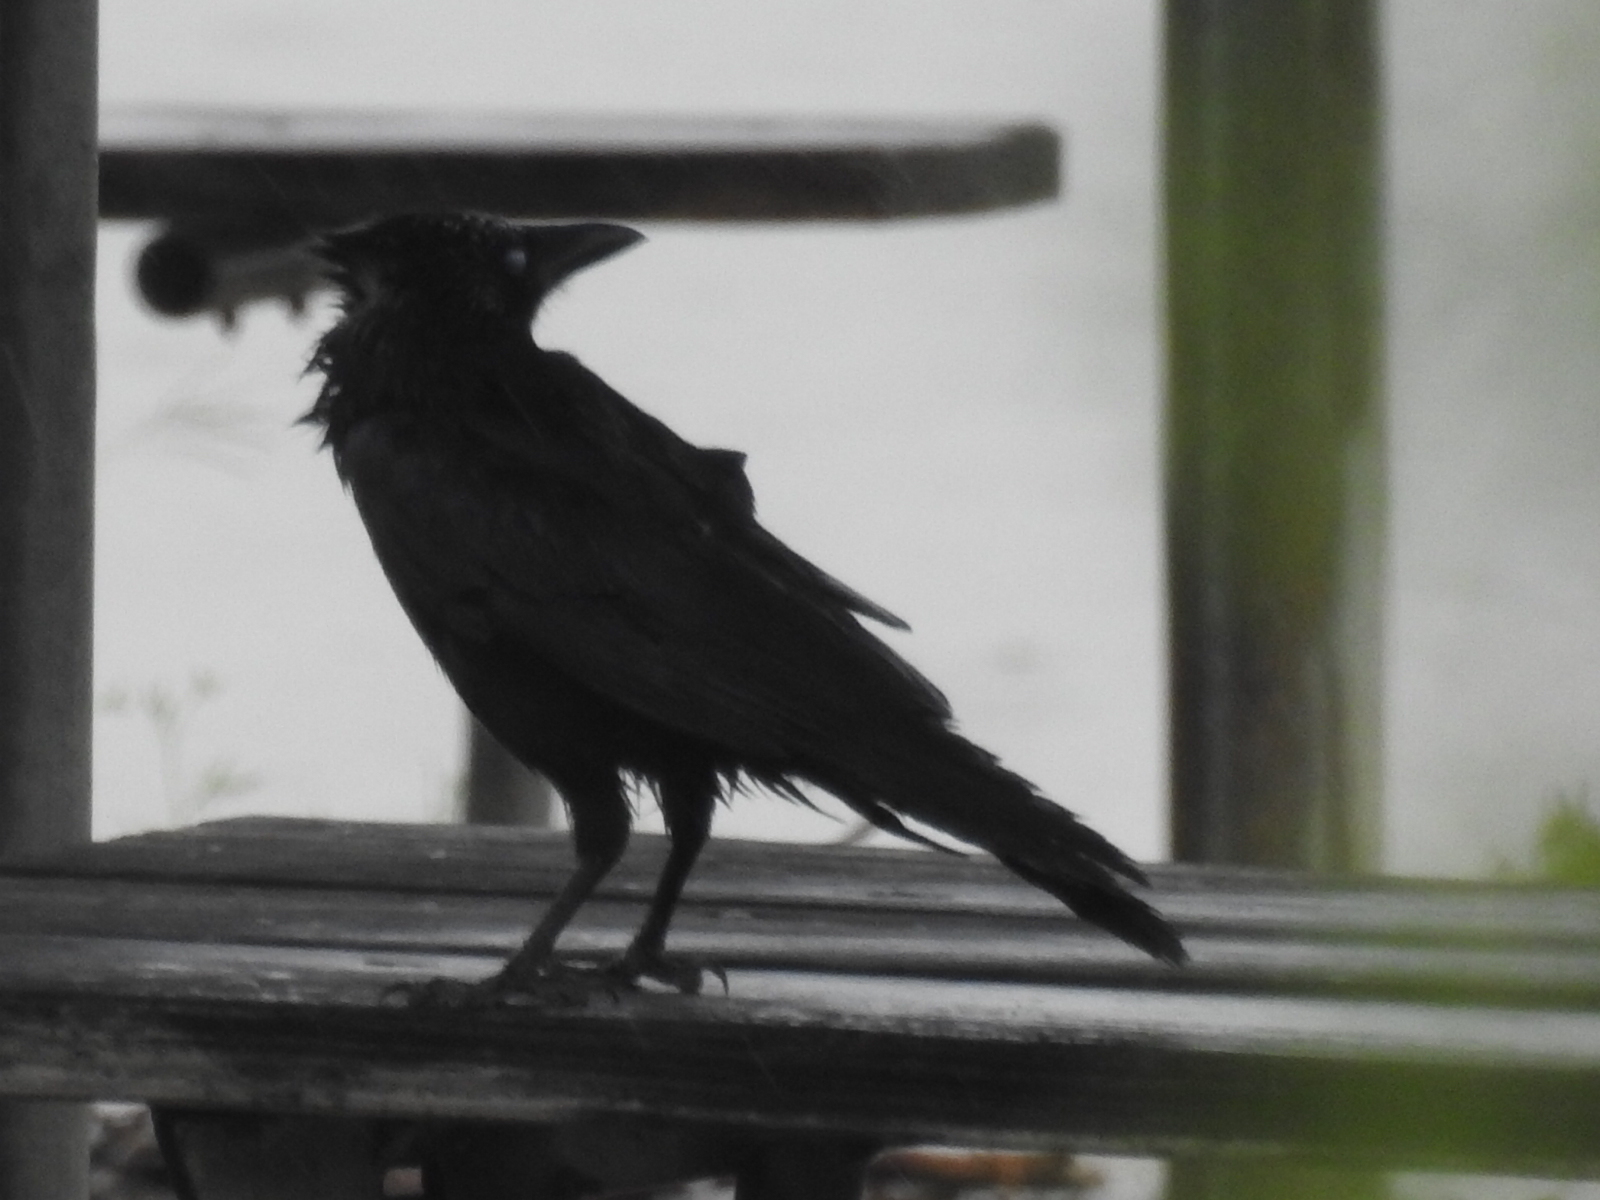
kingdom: Animalia
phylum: Chordata
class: Aves
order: Passeriformes
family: Corvidae
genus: Corvus
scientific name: Corvus brachyrhynchos
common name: American crow
